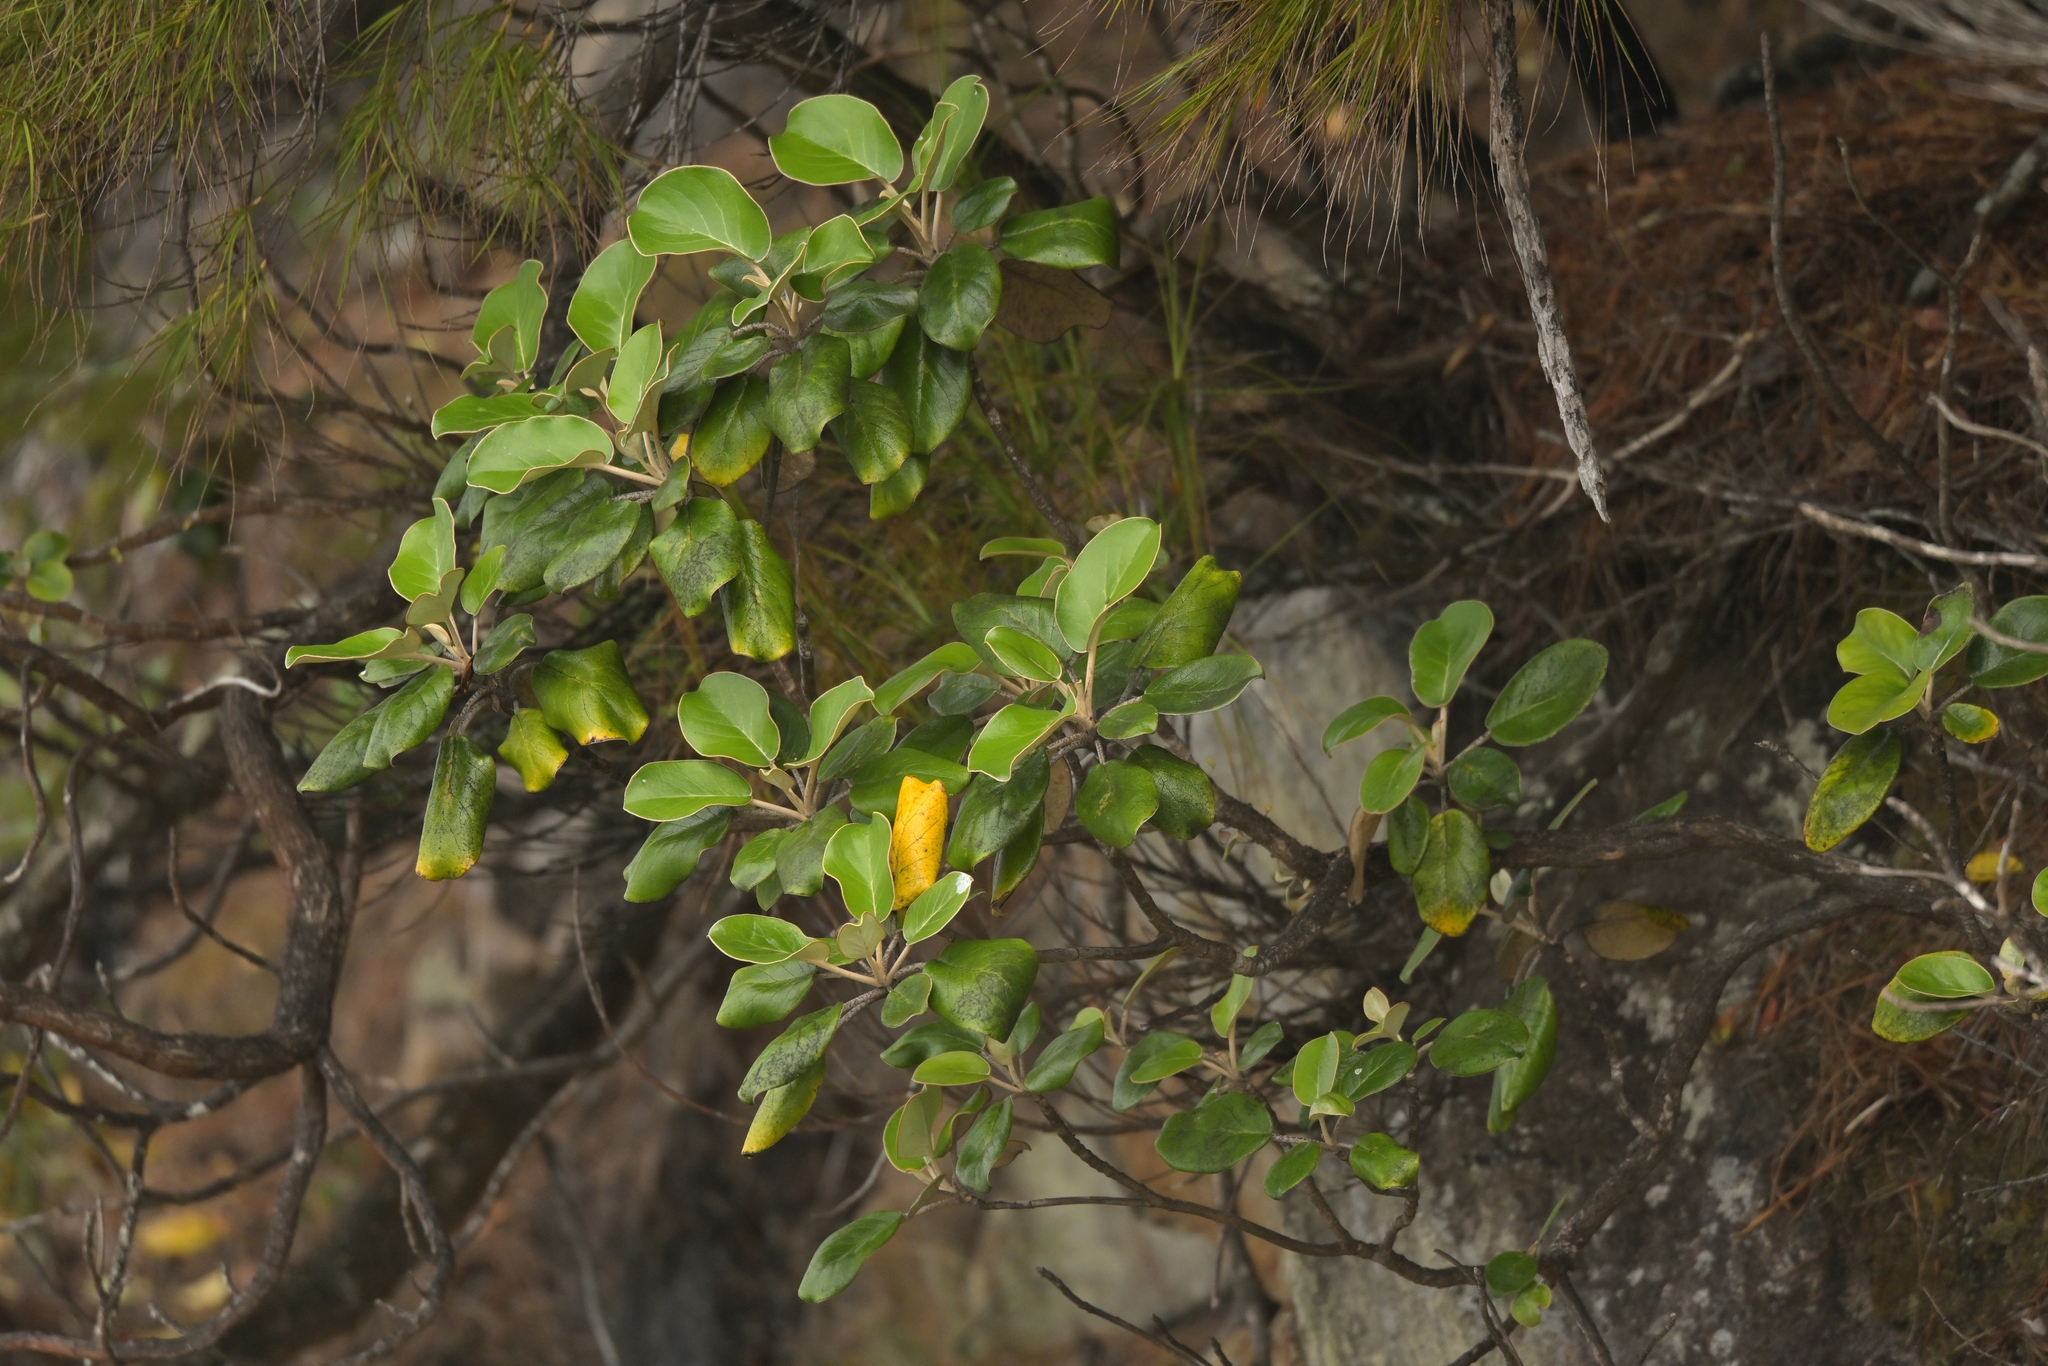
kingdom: Plantae
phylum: Tracheophyta
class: Magnoliopsida
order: Asterales
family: Asteraceae
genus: Brachyglottis
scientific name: Brachyglottis rotundifolia
